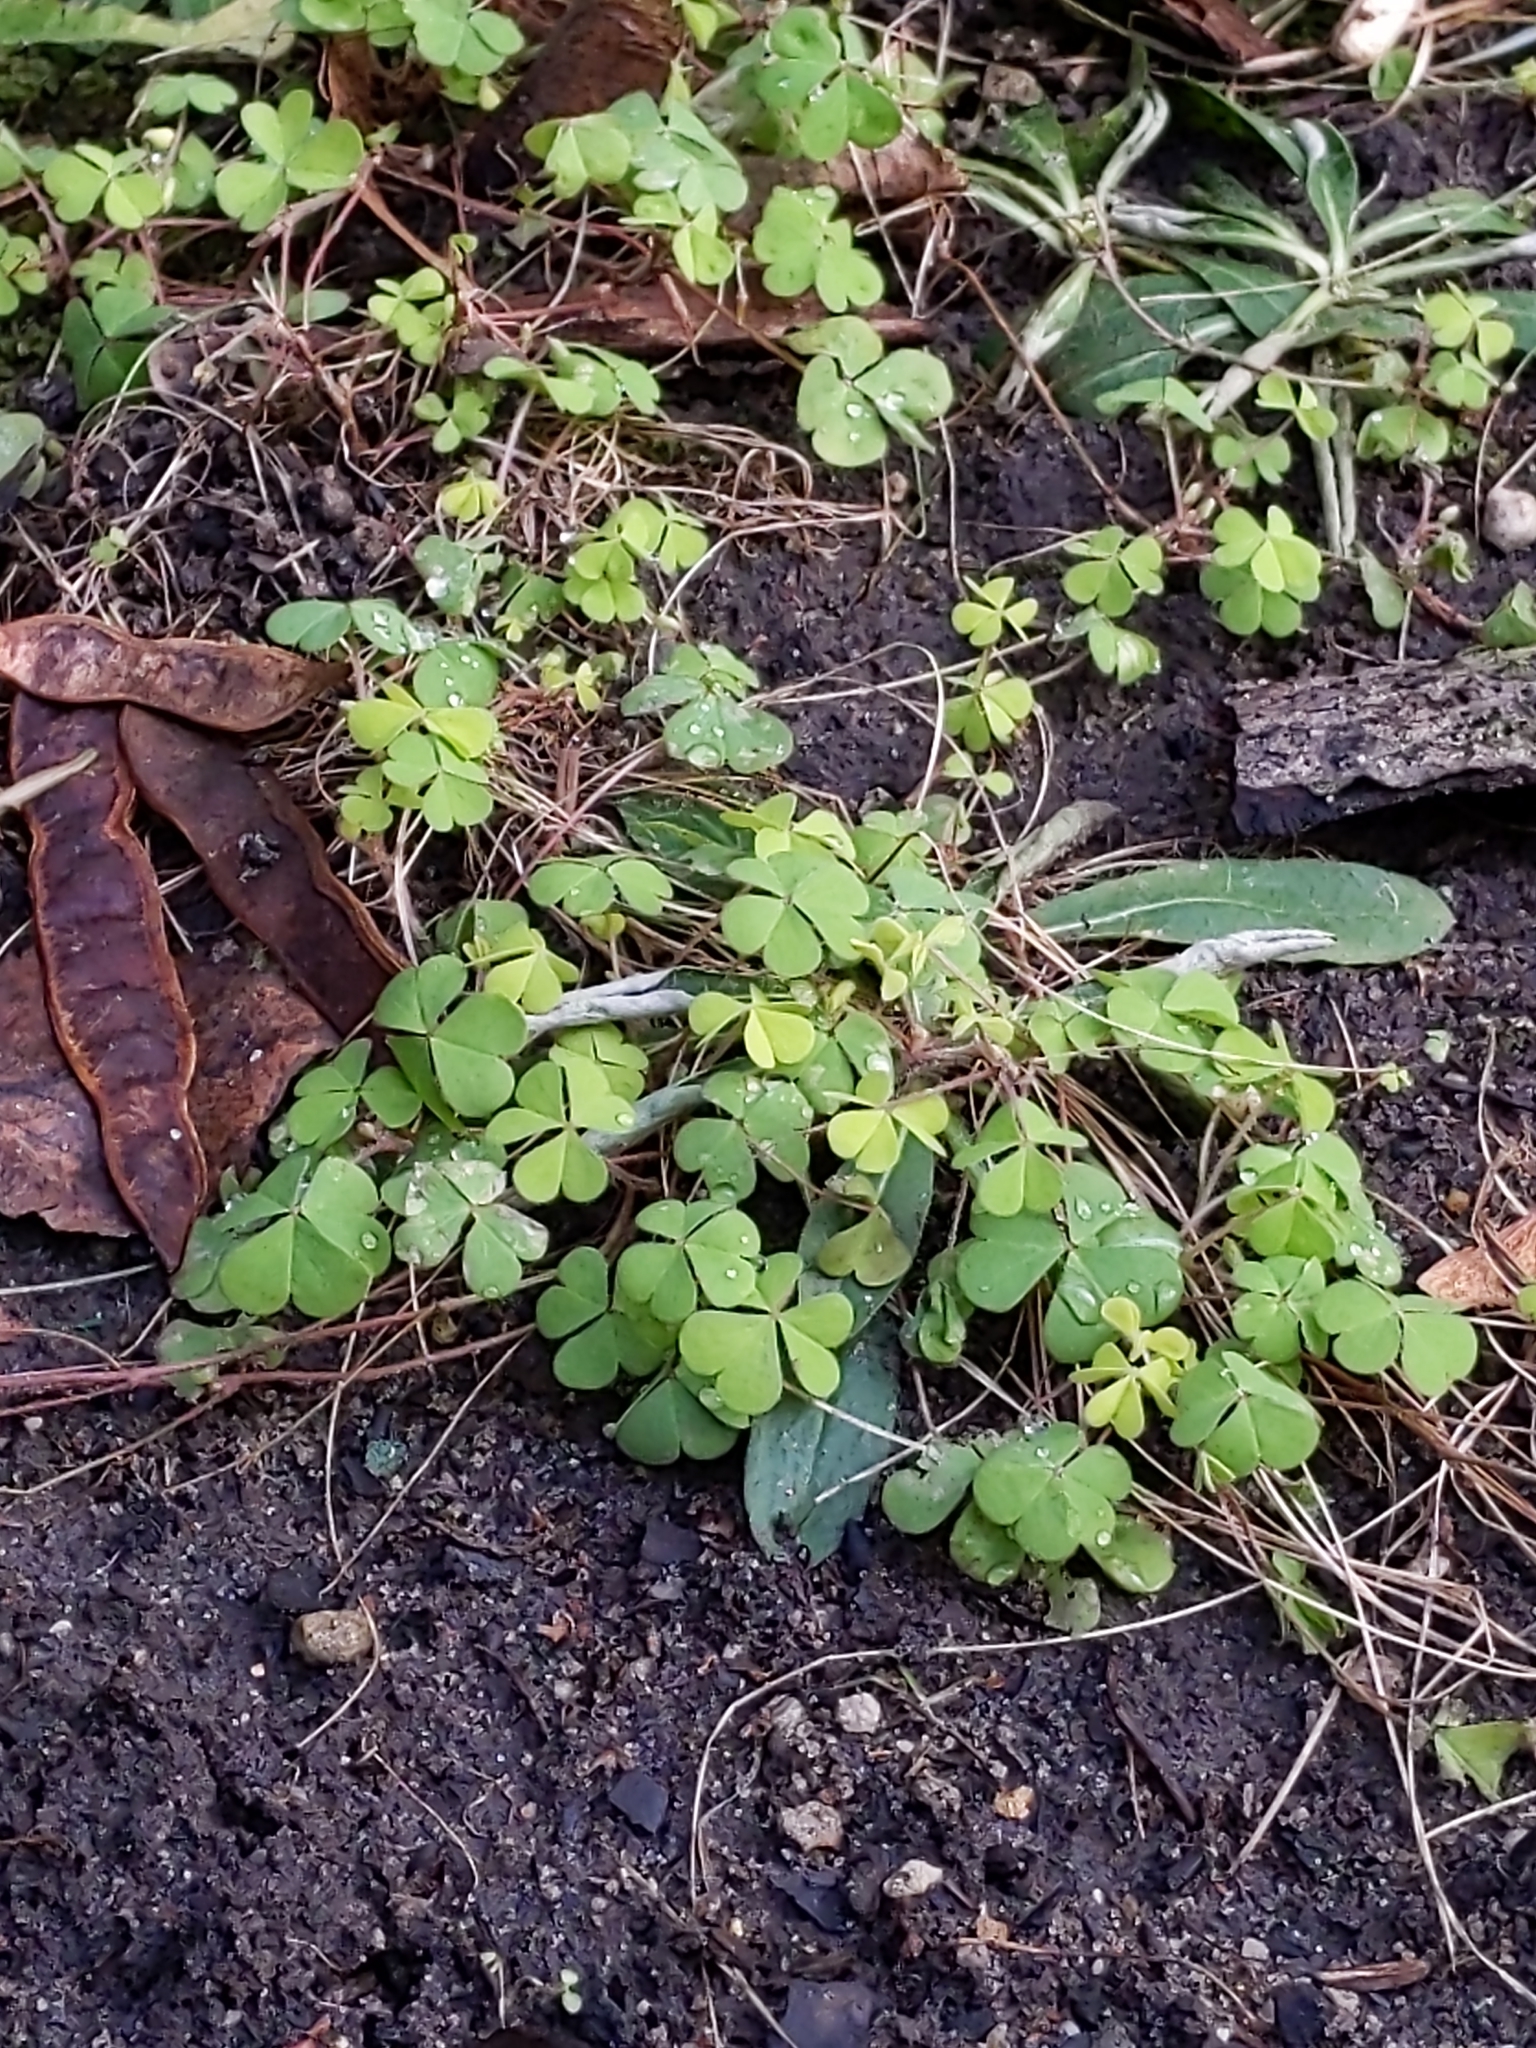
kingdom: Plantae
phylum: Tracheophyta
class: Magnoliopsida
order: Oxalidales
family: Oxalidaceae
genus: Oxalis
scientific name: Oxalis corniculata
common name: Procumbent yellow-sorrel
